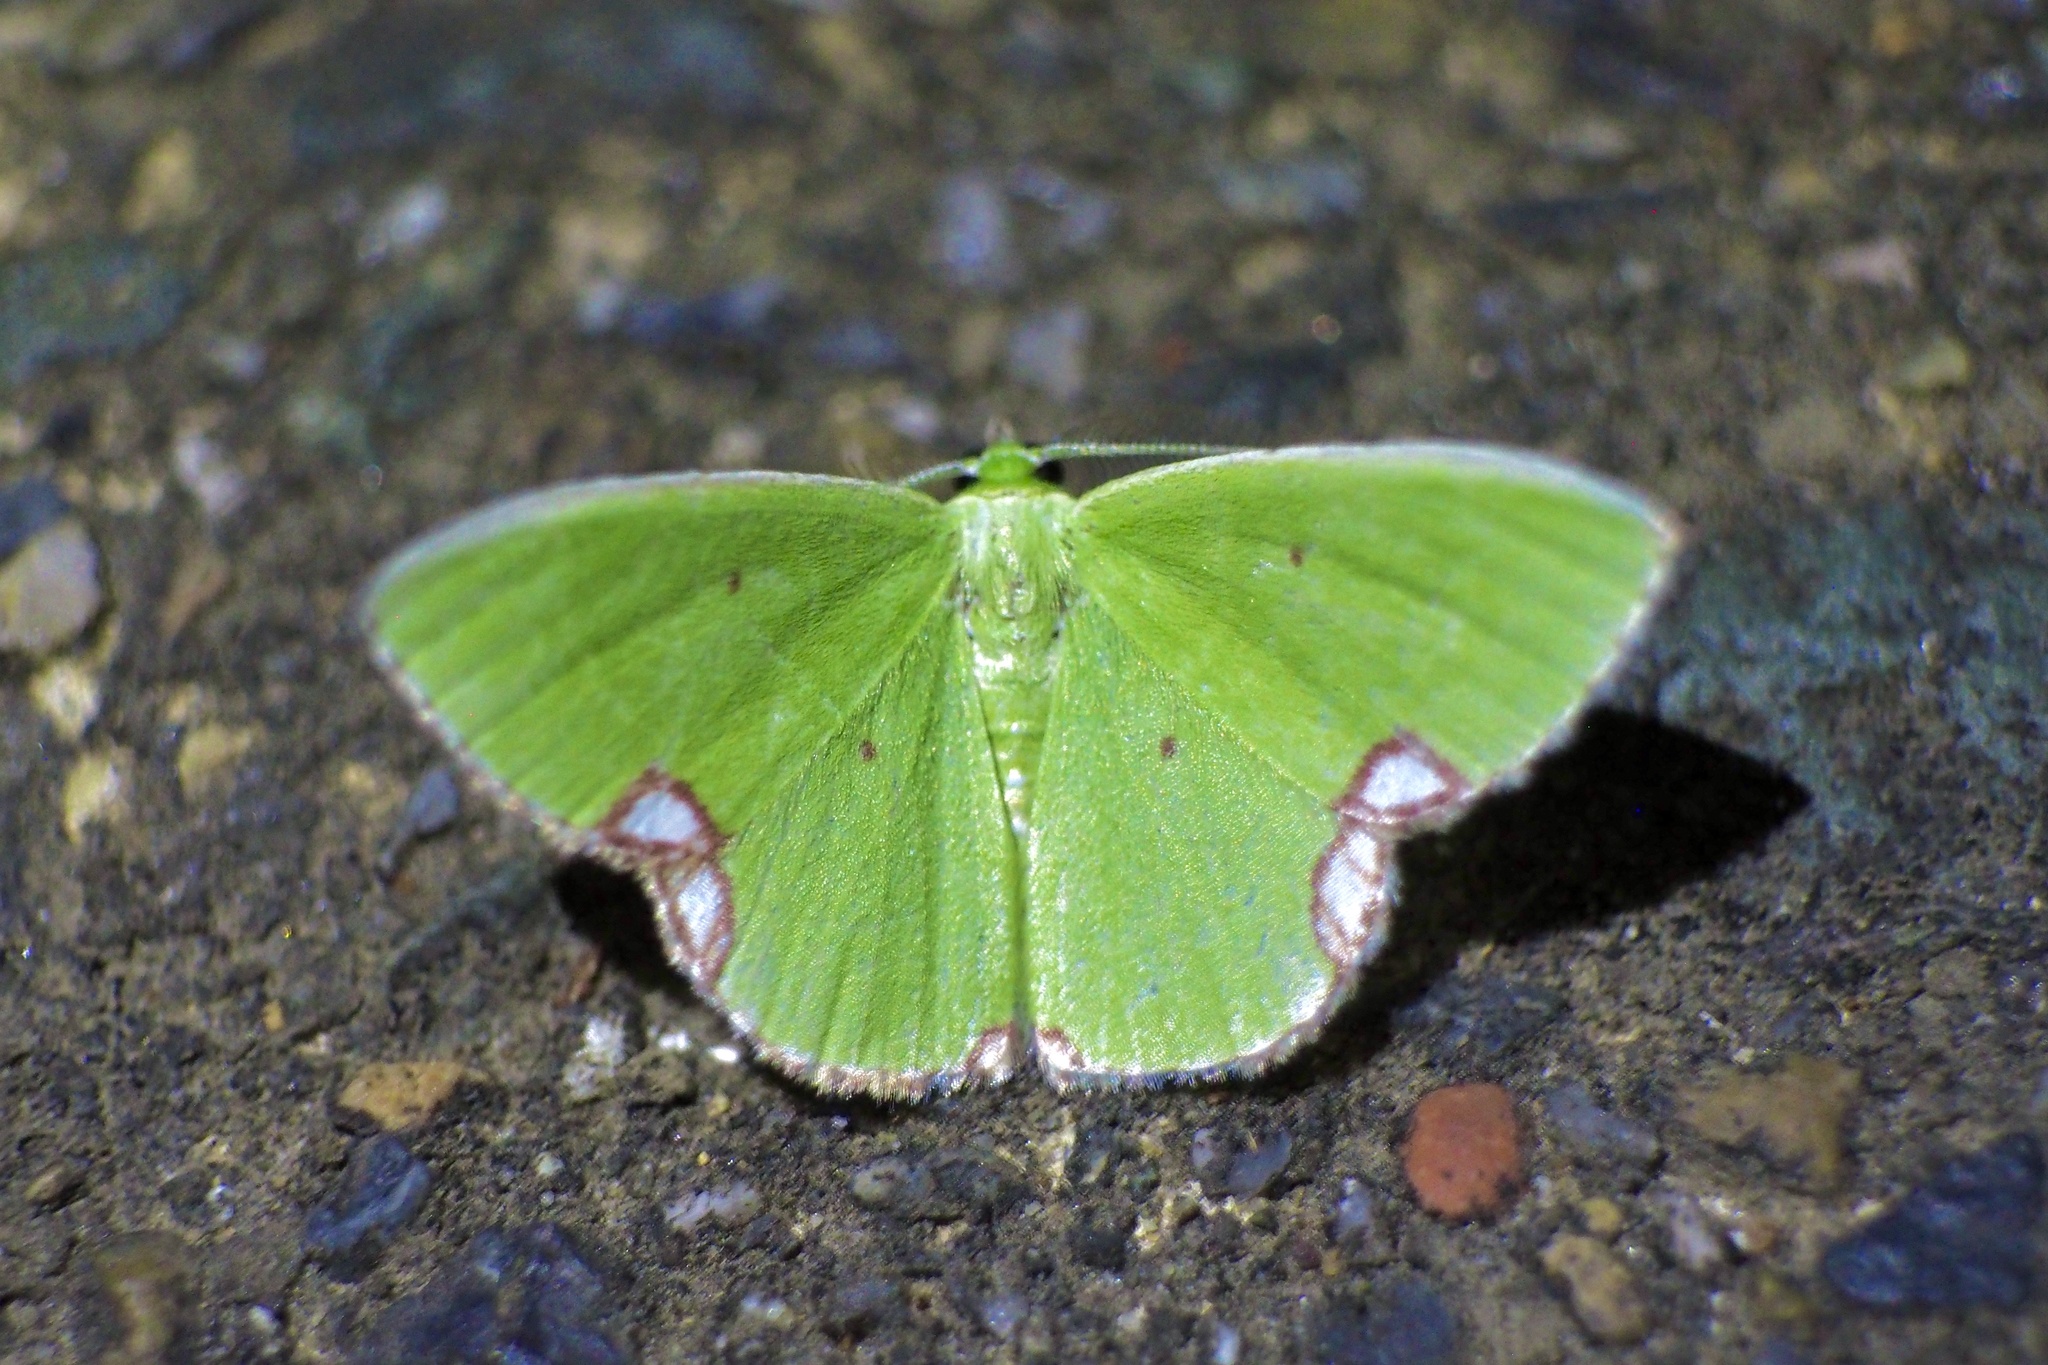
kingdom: Animalia
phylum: Arthropoda
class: Insecta
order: Lepidoptera
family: Geometridae
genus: Comibaena
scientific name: Comibaena procumbaria
